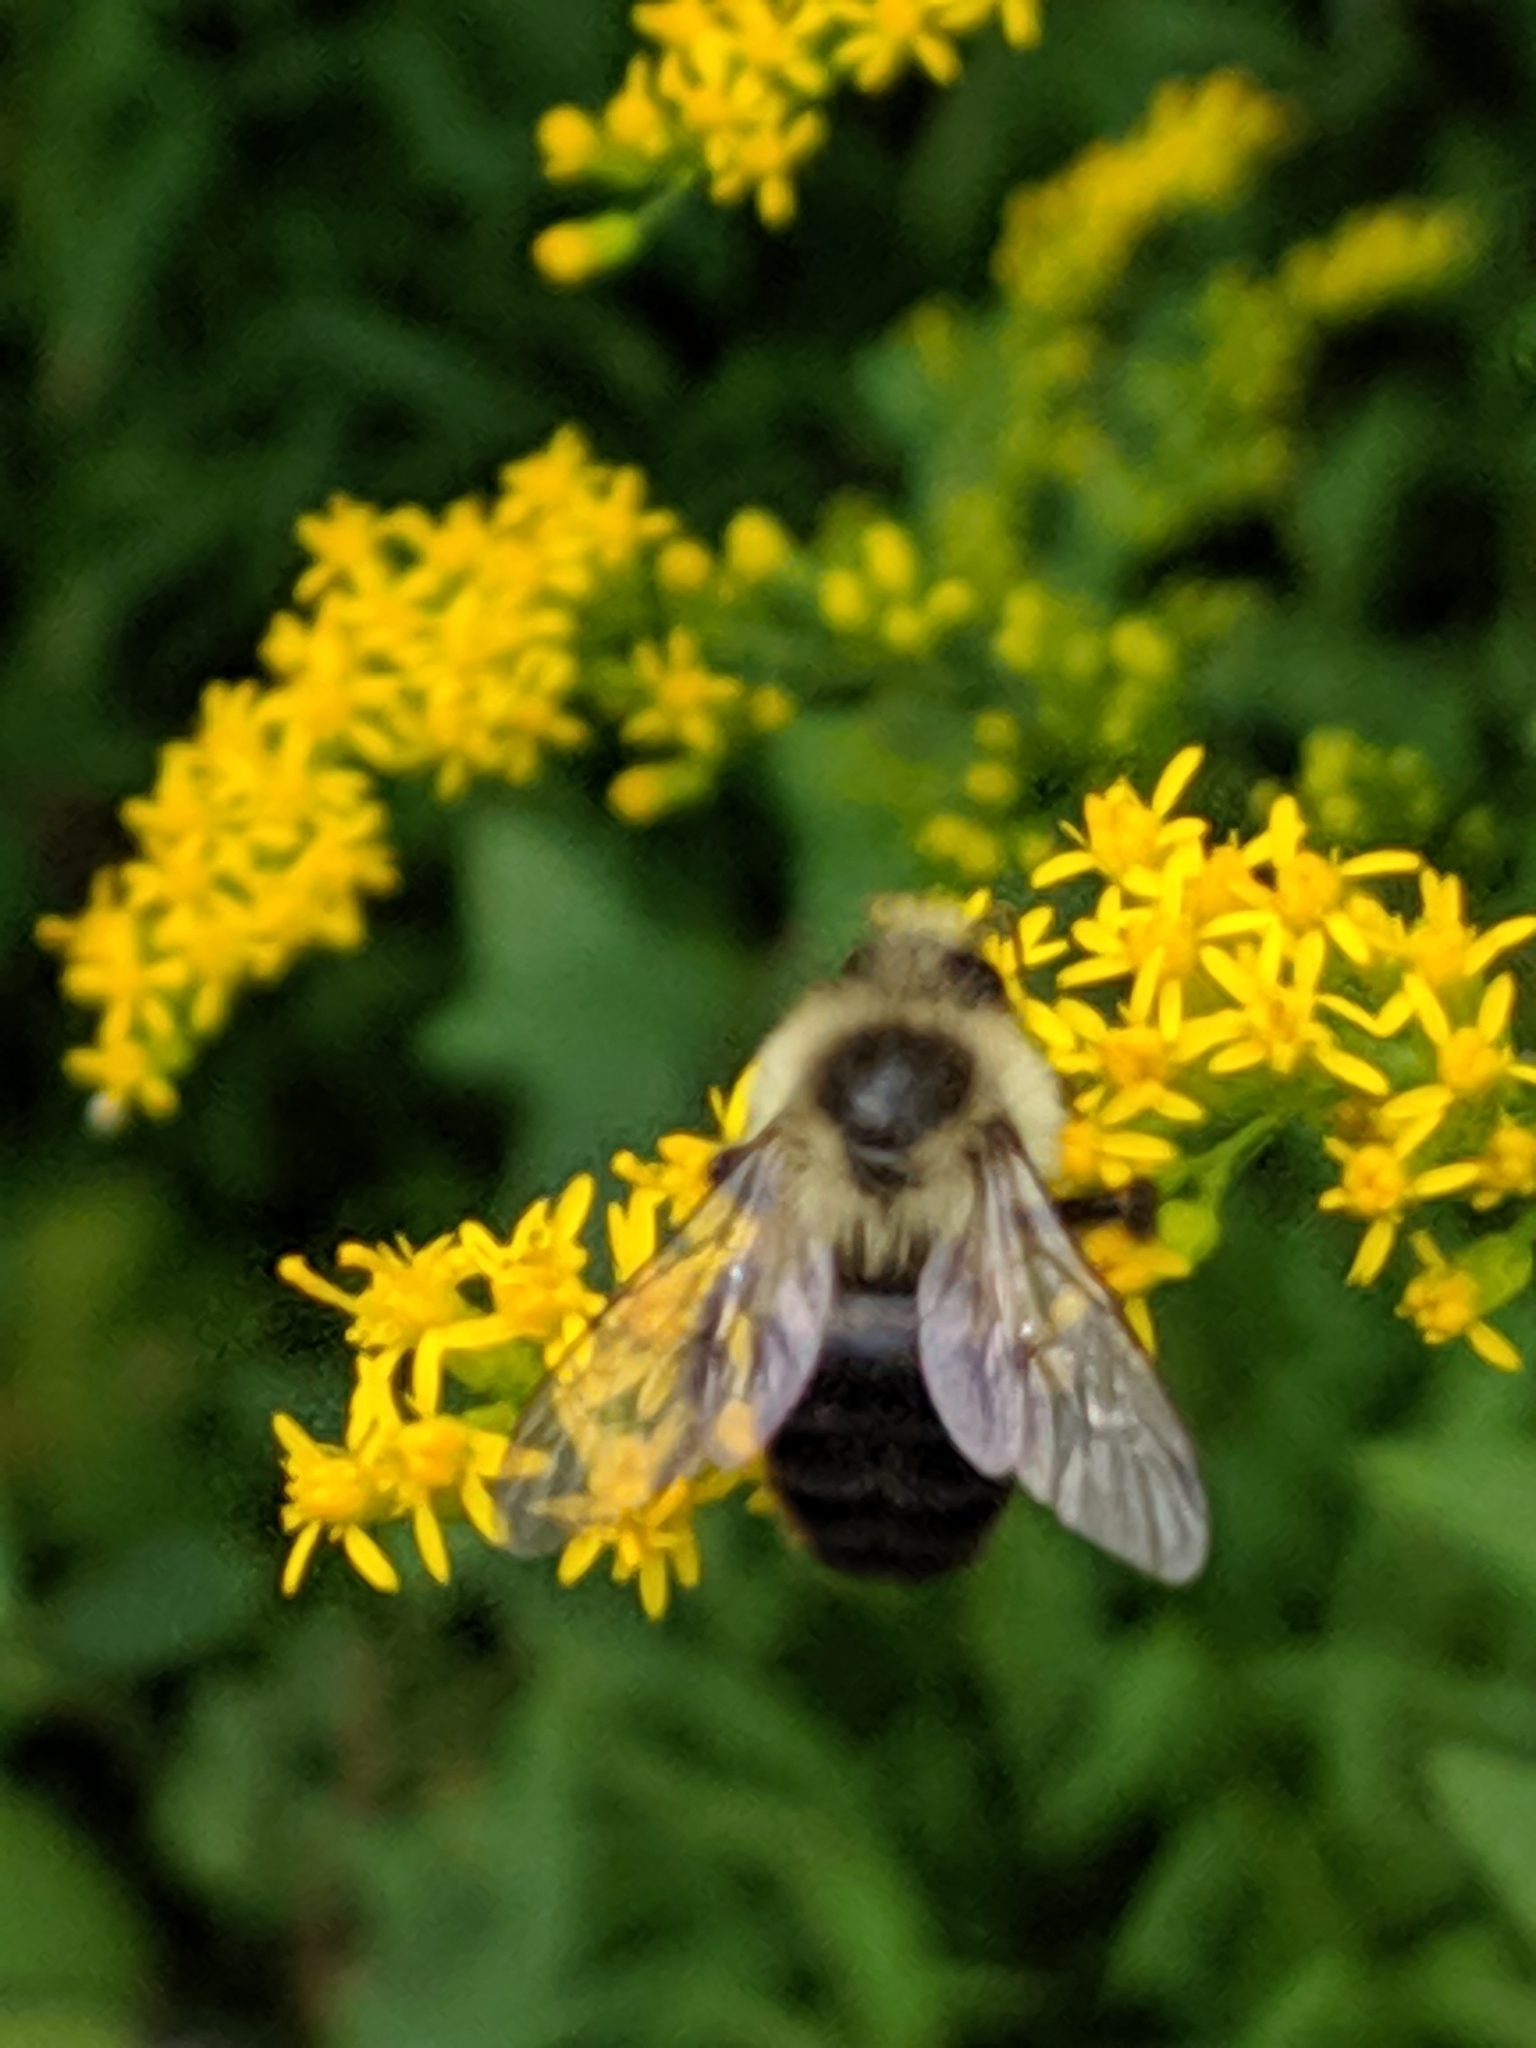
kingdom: Animalia
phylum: Arthropoda
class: Insecta
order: Hymenoptera
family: Apidae
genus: Bombus
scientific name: Bombus impatiens
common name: Common eastern bumble bee
